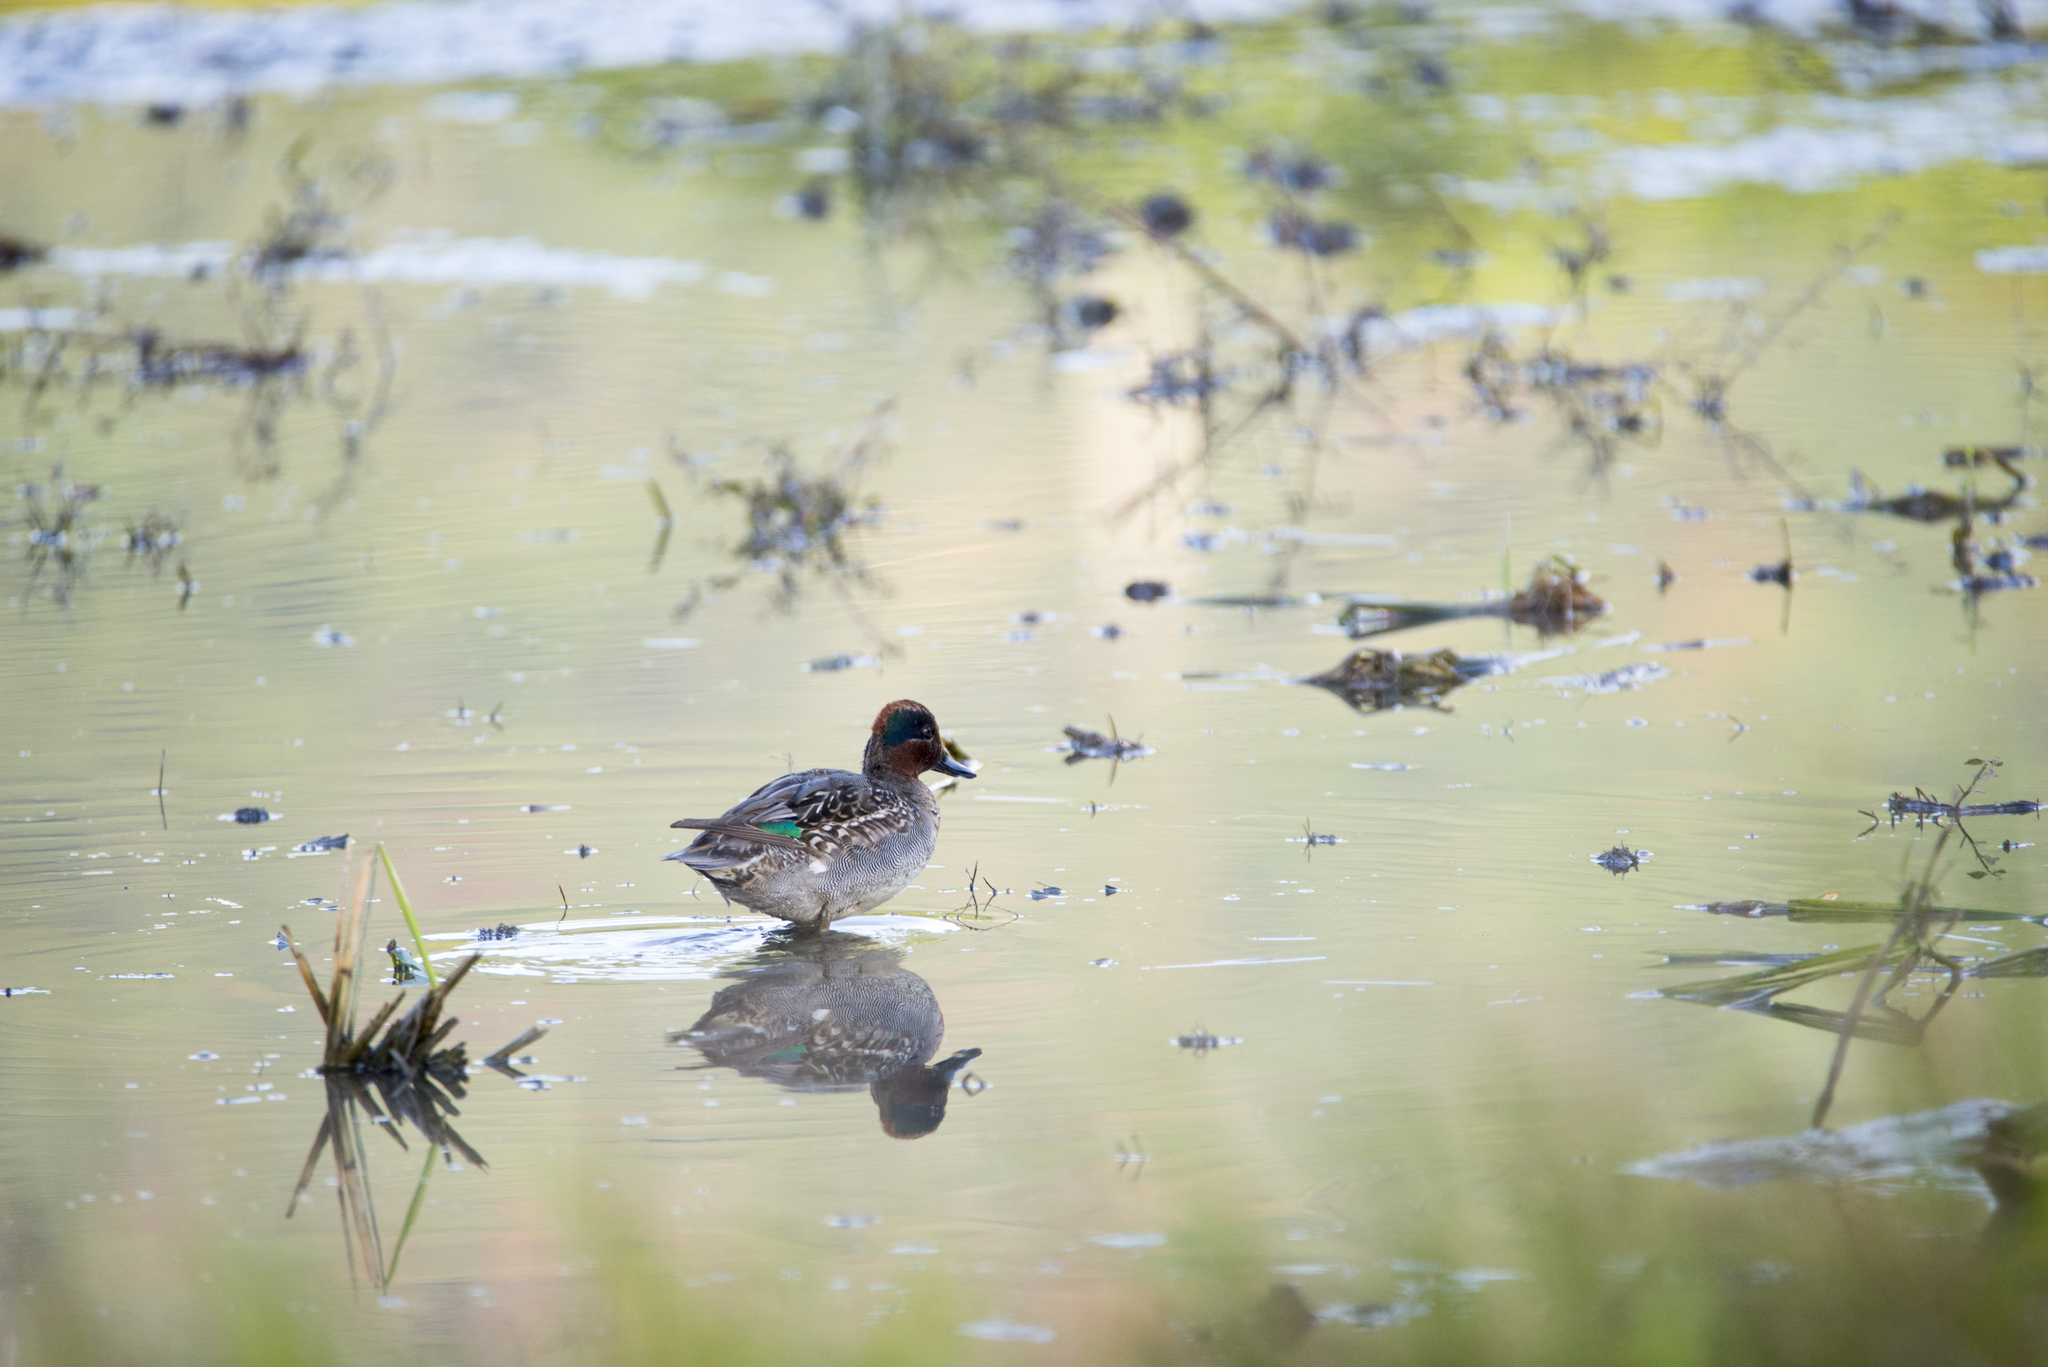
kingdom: Animalia
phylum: Chordata
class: Aves
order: Anseriformes
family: Anatidae
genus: Anas
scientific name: Anas crecca
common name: Eurasian teal
